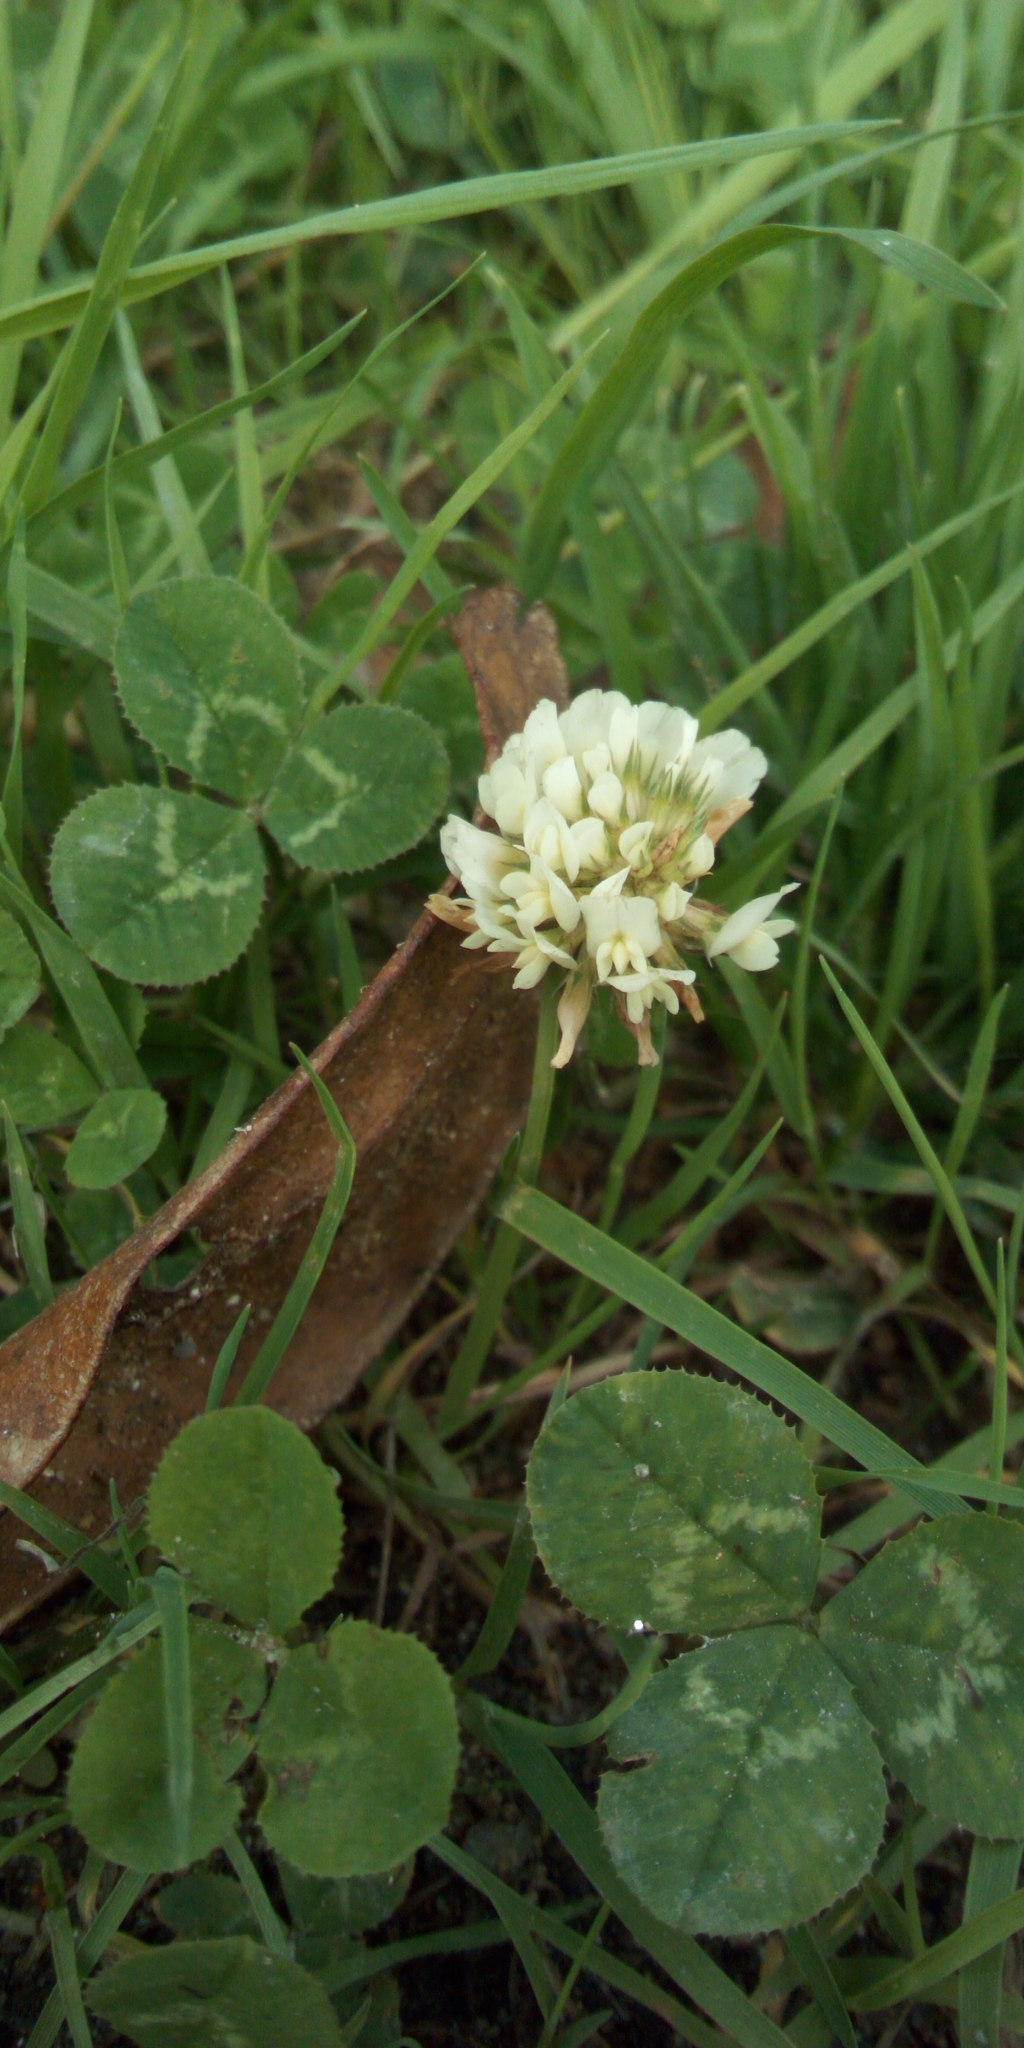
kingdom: Plantae
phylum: Tracheophyta
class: Magnoliopsida
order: Fabales
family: Fabaceae
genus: Trifolium
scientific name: Trifolium repens
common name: White clover
